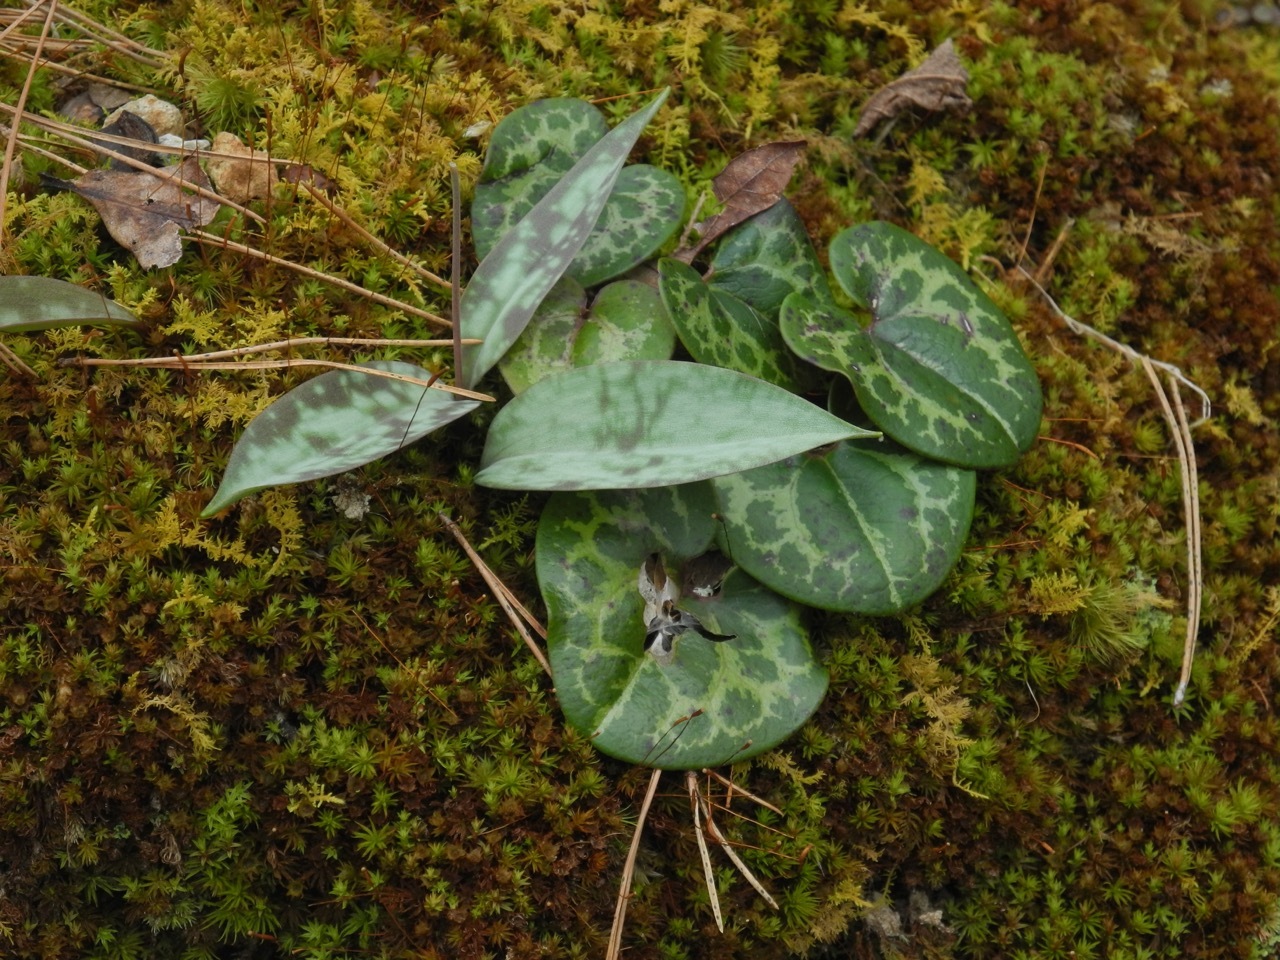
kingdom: Plantae
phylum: Tracheophyta
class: Magnoliopsida
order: Piperales
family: Aristolochiaceae
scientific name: Aristolochiaceae
